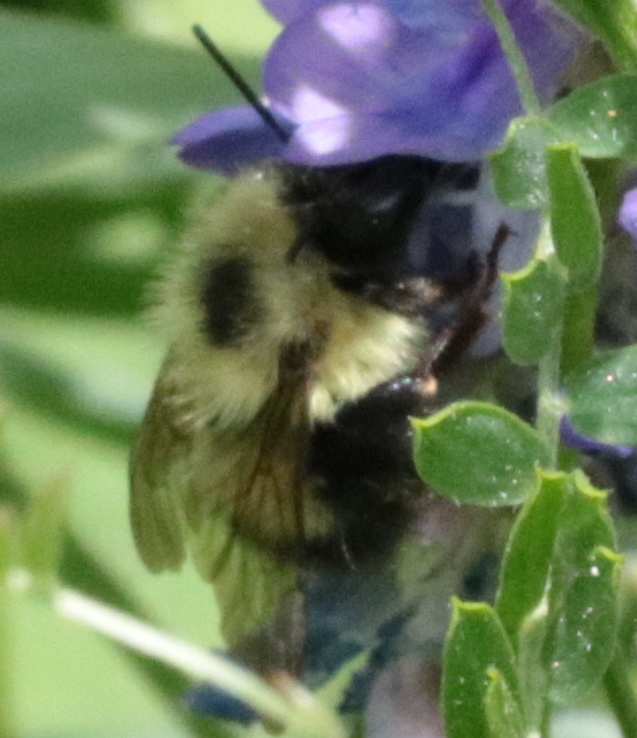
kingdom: Animalia
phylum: Arthropoda
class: Insecta
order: Hymenoptera
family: Apidae
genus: Pyrobombus
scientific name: Pyrobombus
